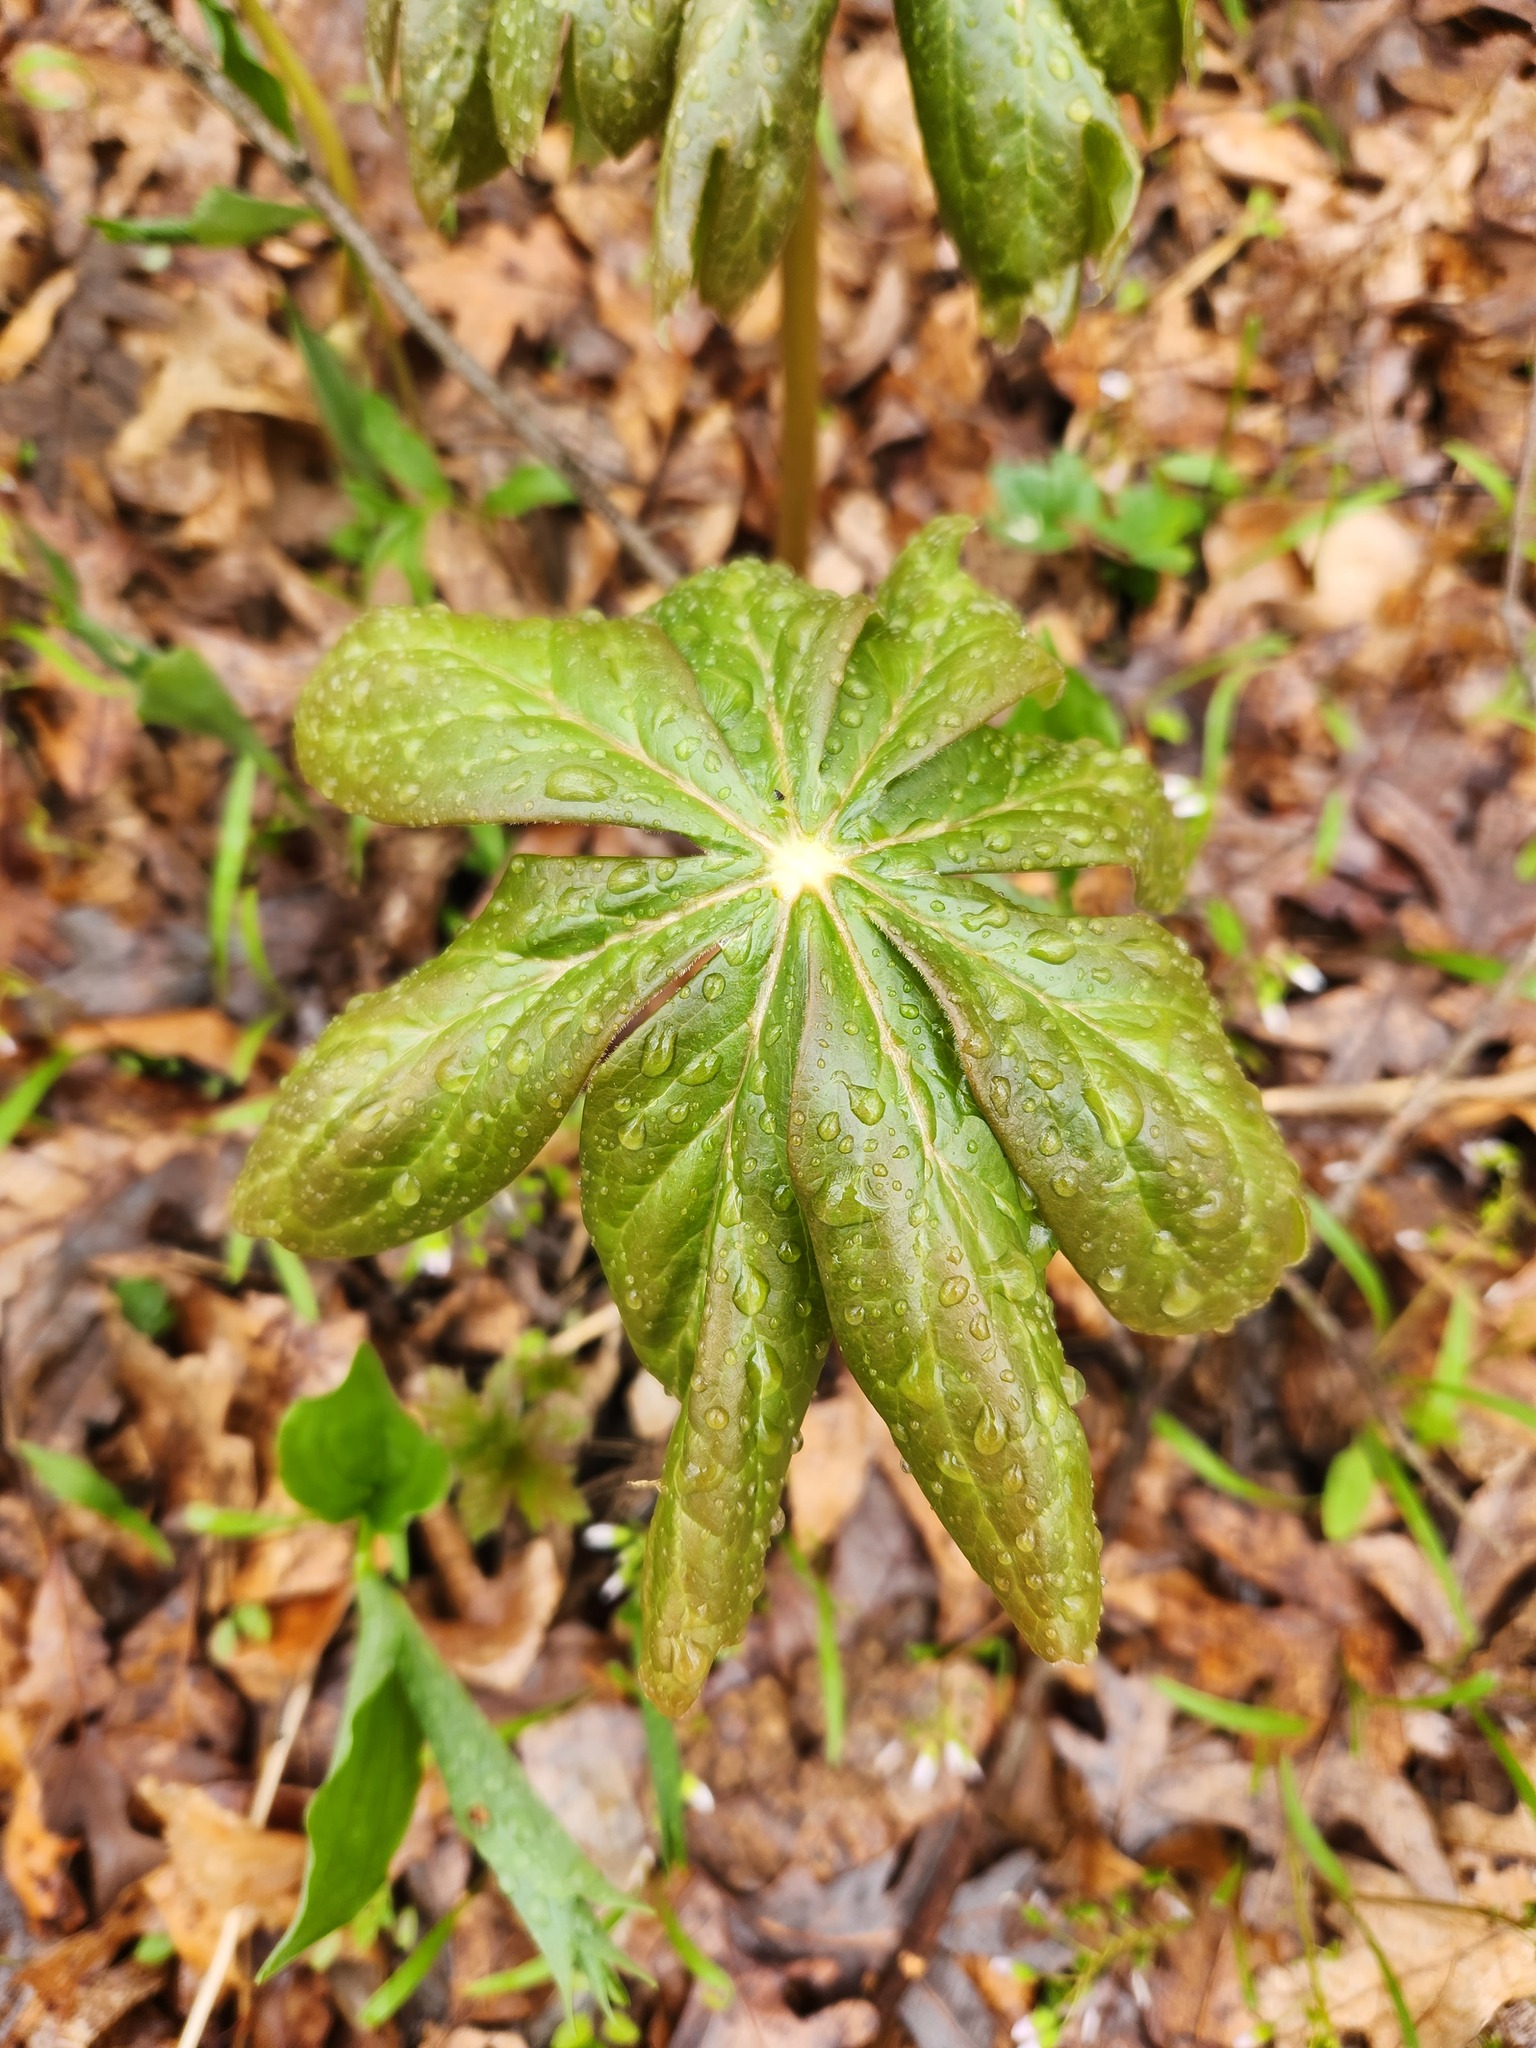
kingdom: Plantae
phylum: Tracheophyta
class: Magnoliopsida
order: Ranunculales
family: Berberidaceae
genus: Podophyllum
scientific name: Podophyllum peltatum
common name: Wild mandrake
